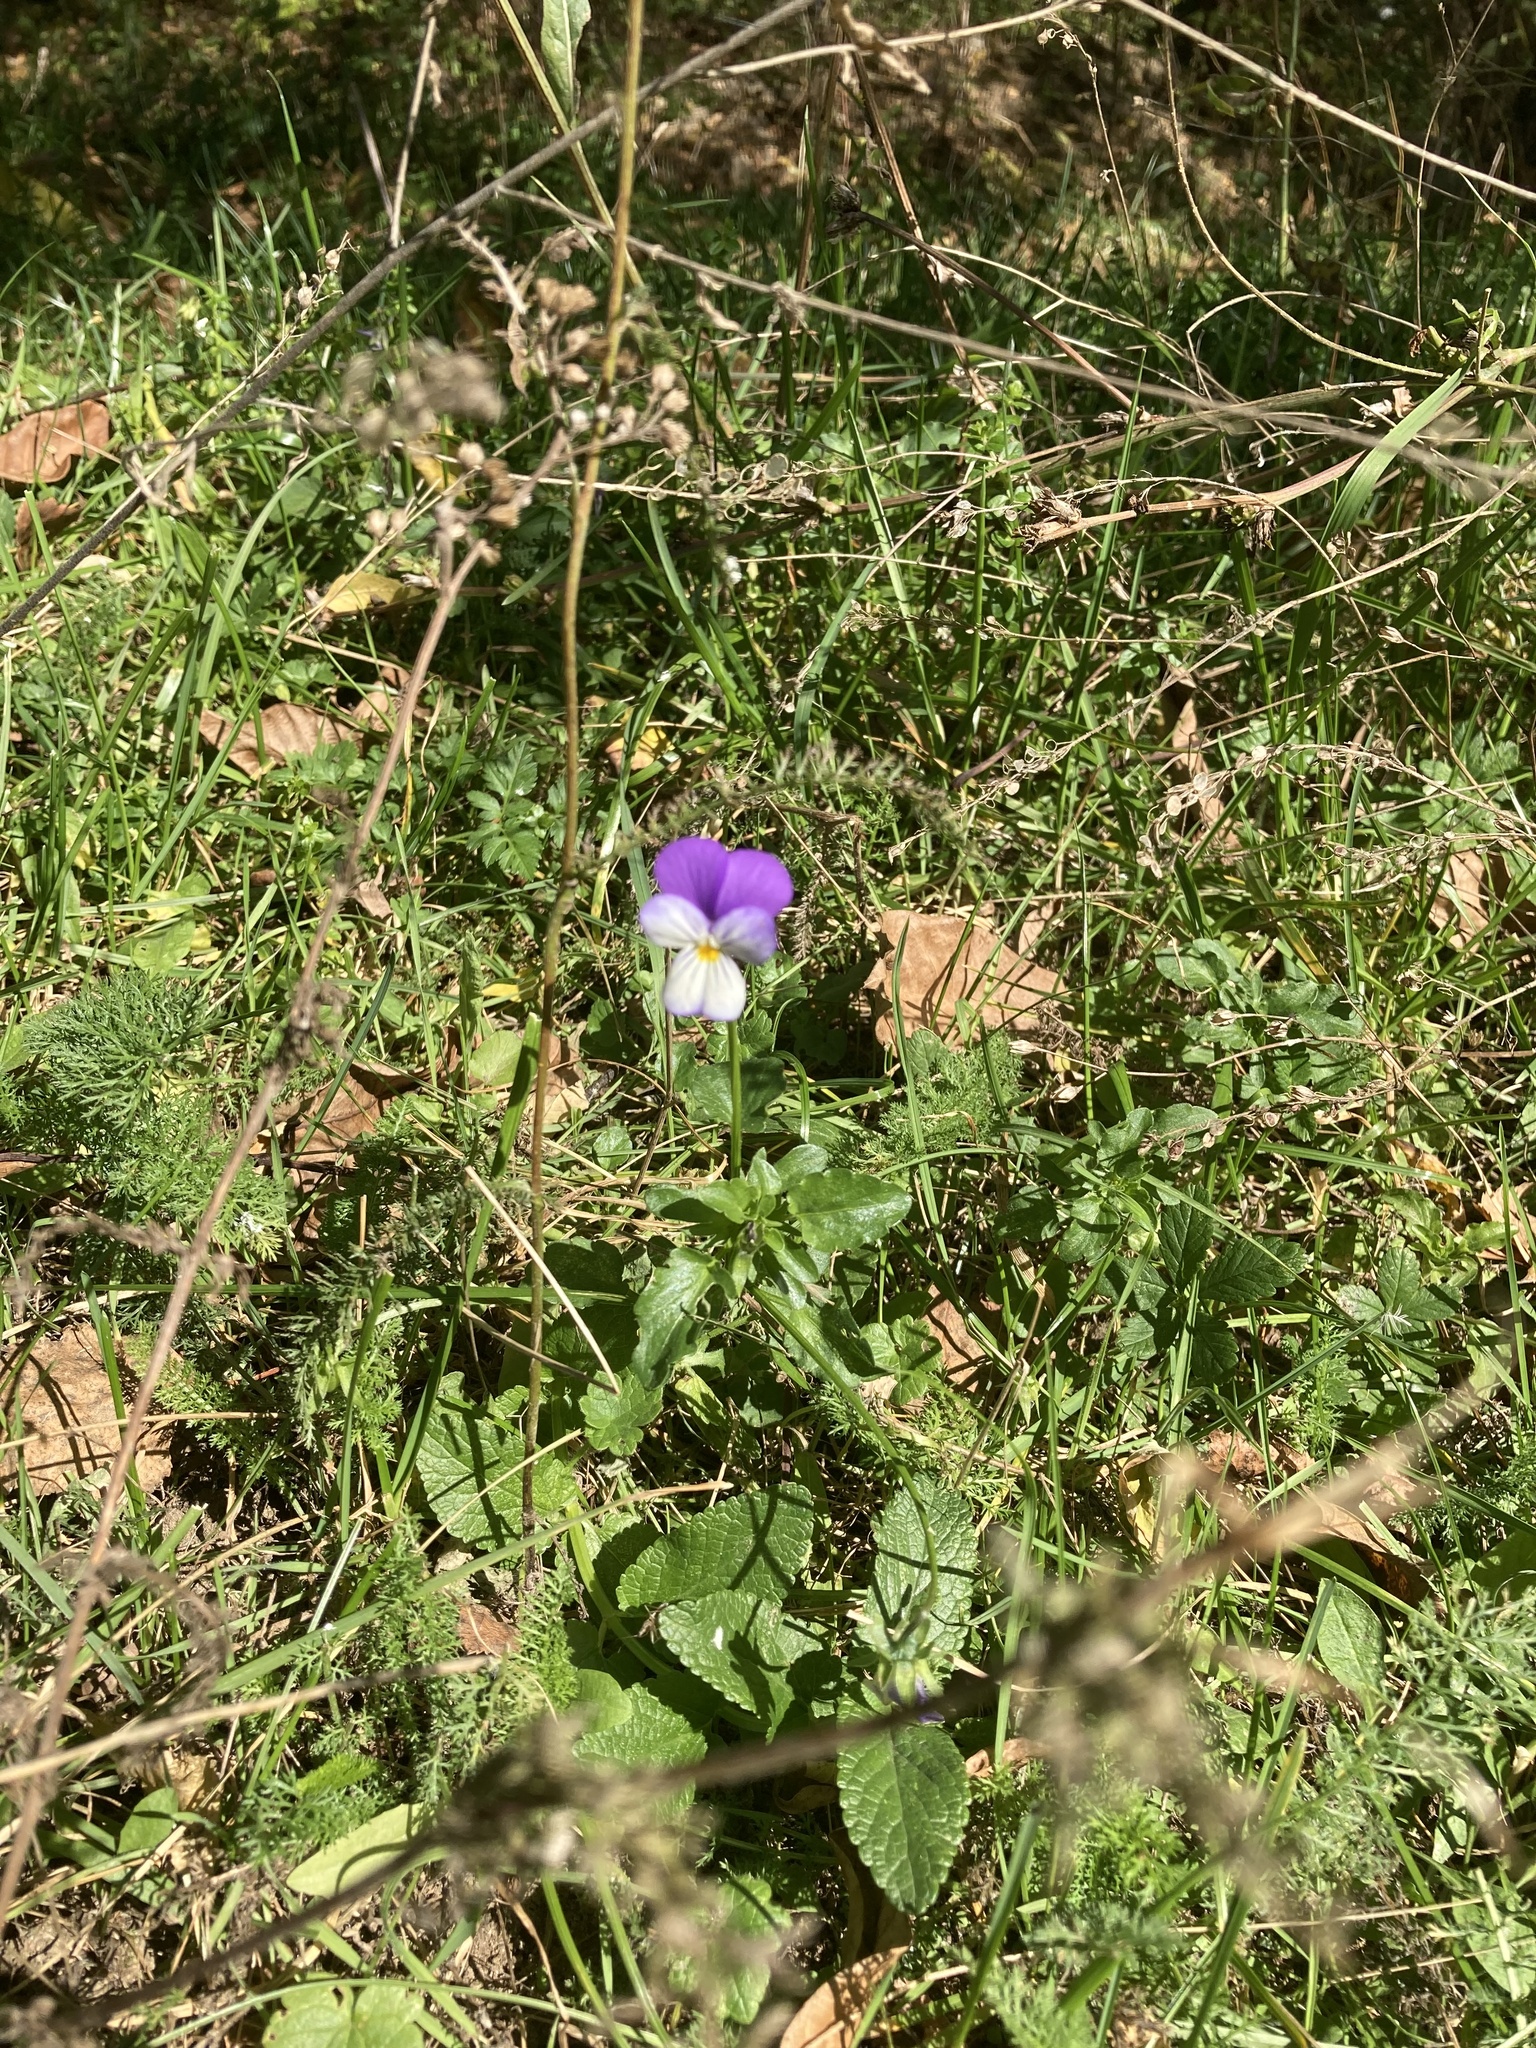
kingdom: Plantae
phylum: Tracheophyta
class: Magnoliopsida
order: Malpighiales
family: Violaceae
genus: Viola
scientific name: Viola tricolor
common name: Pansy
